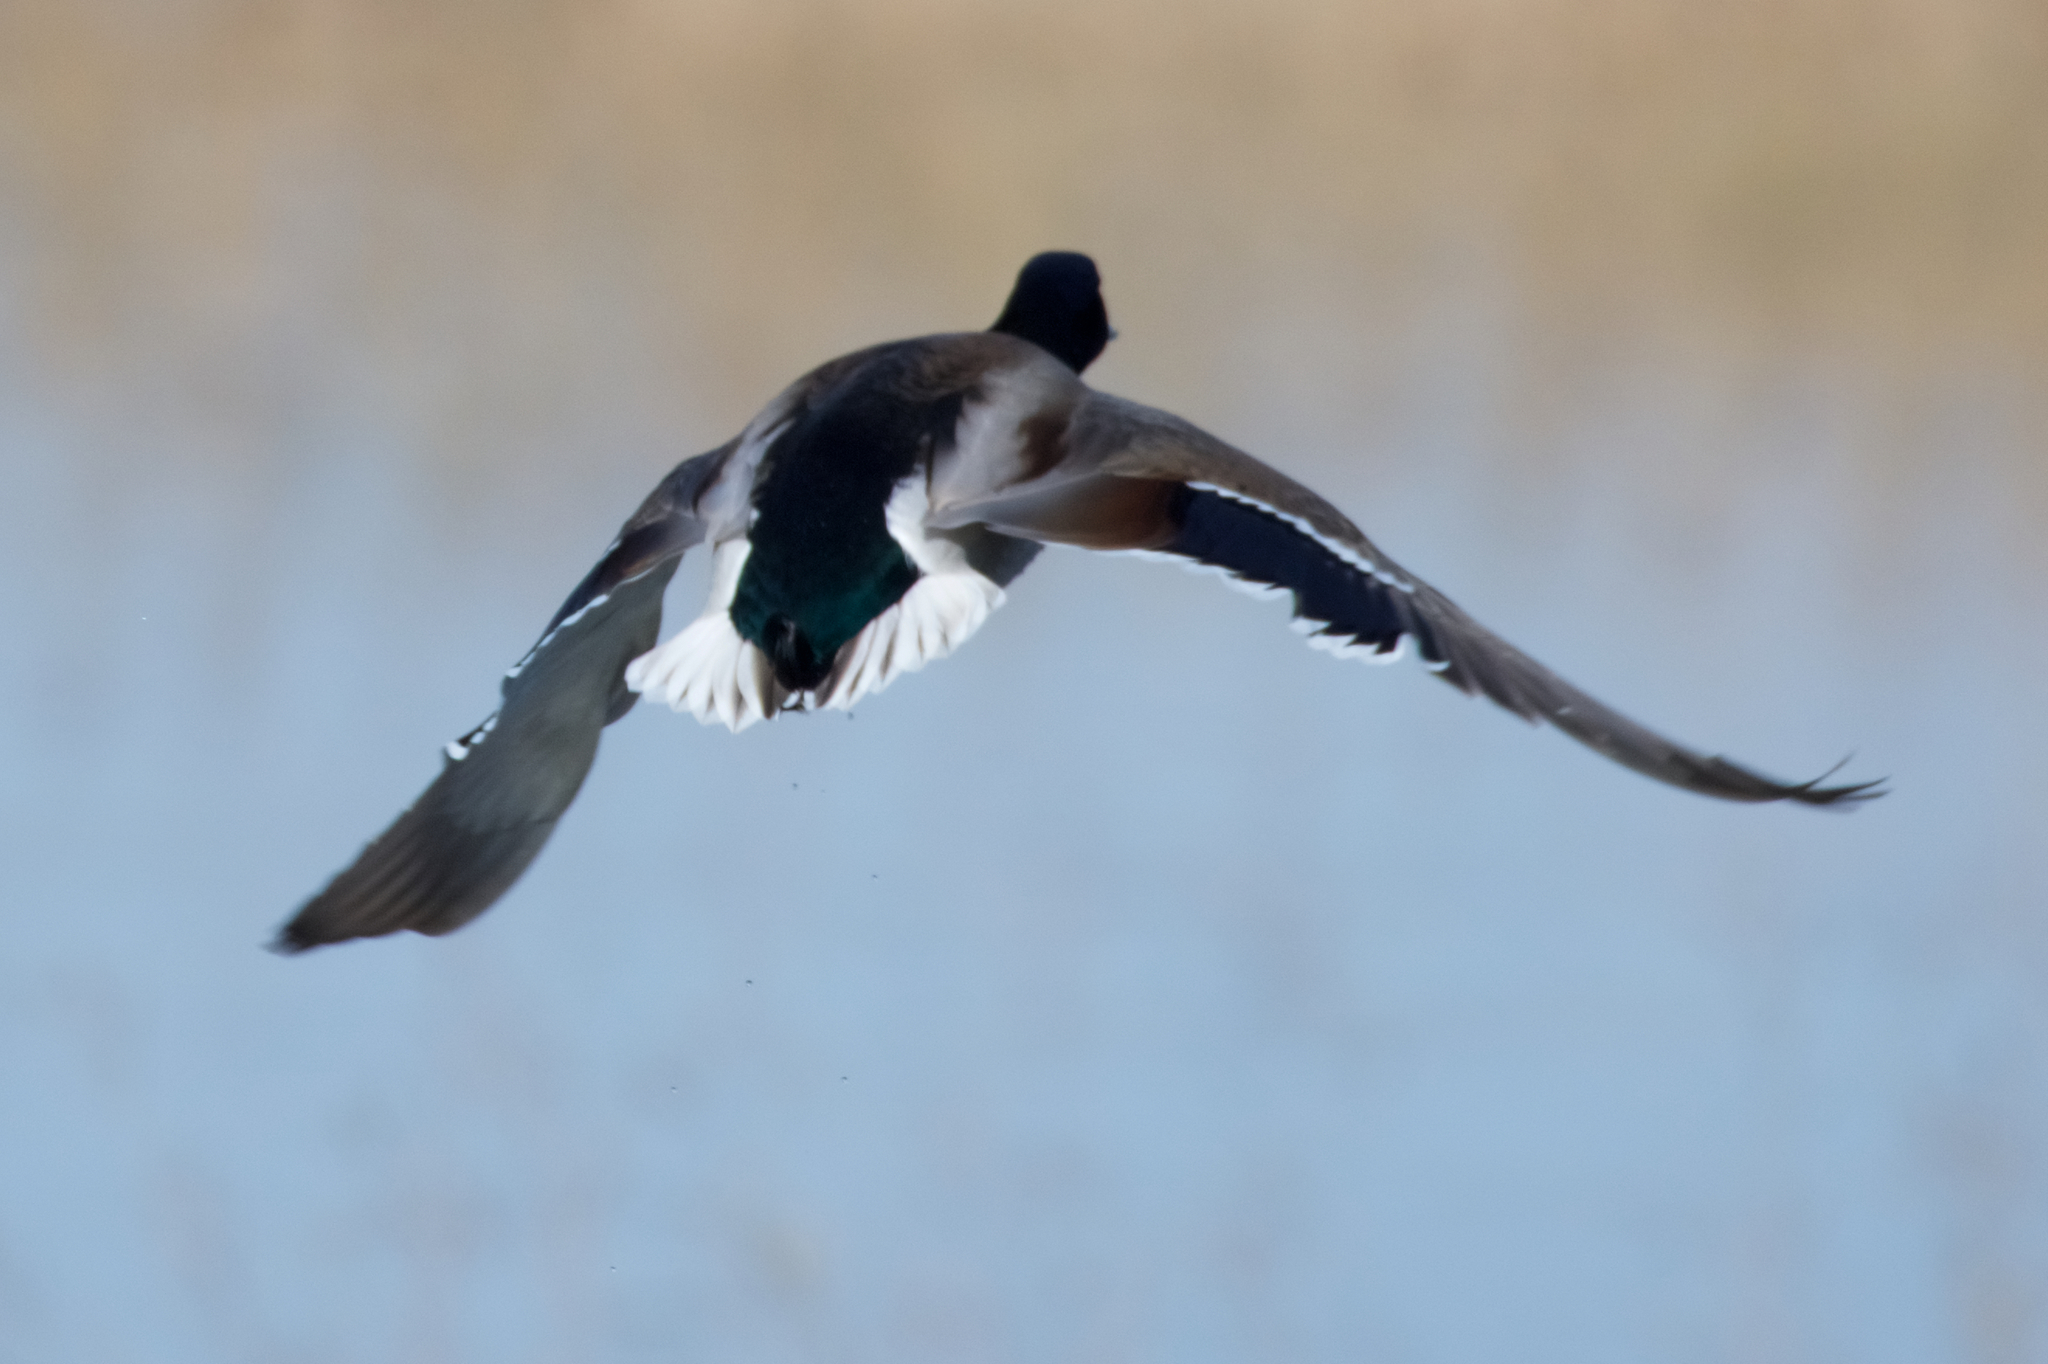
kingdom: Animalia
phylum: Chordata
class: Aves
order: Anseriformes
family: Anatidae
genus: Anas
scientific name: Anas platyrhynchos
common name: Mallard
